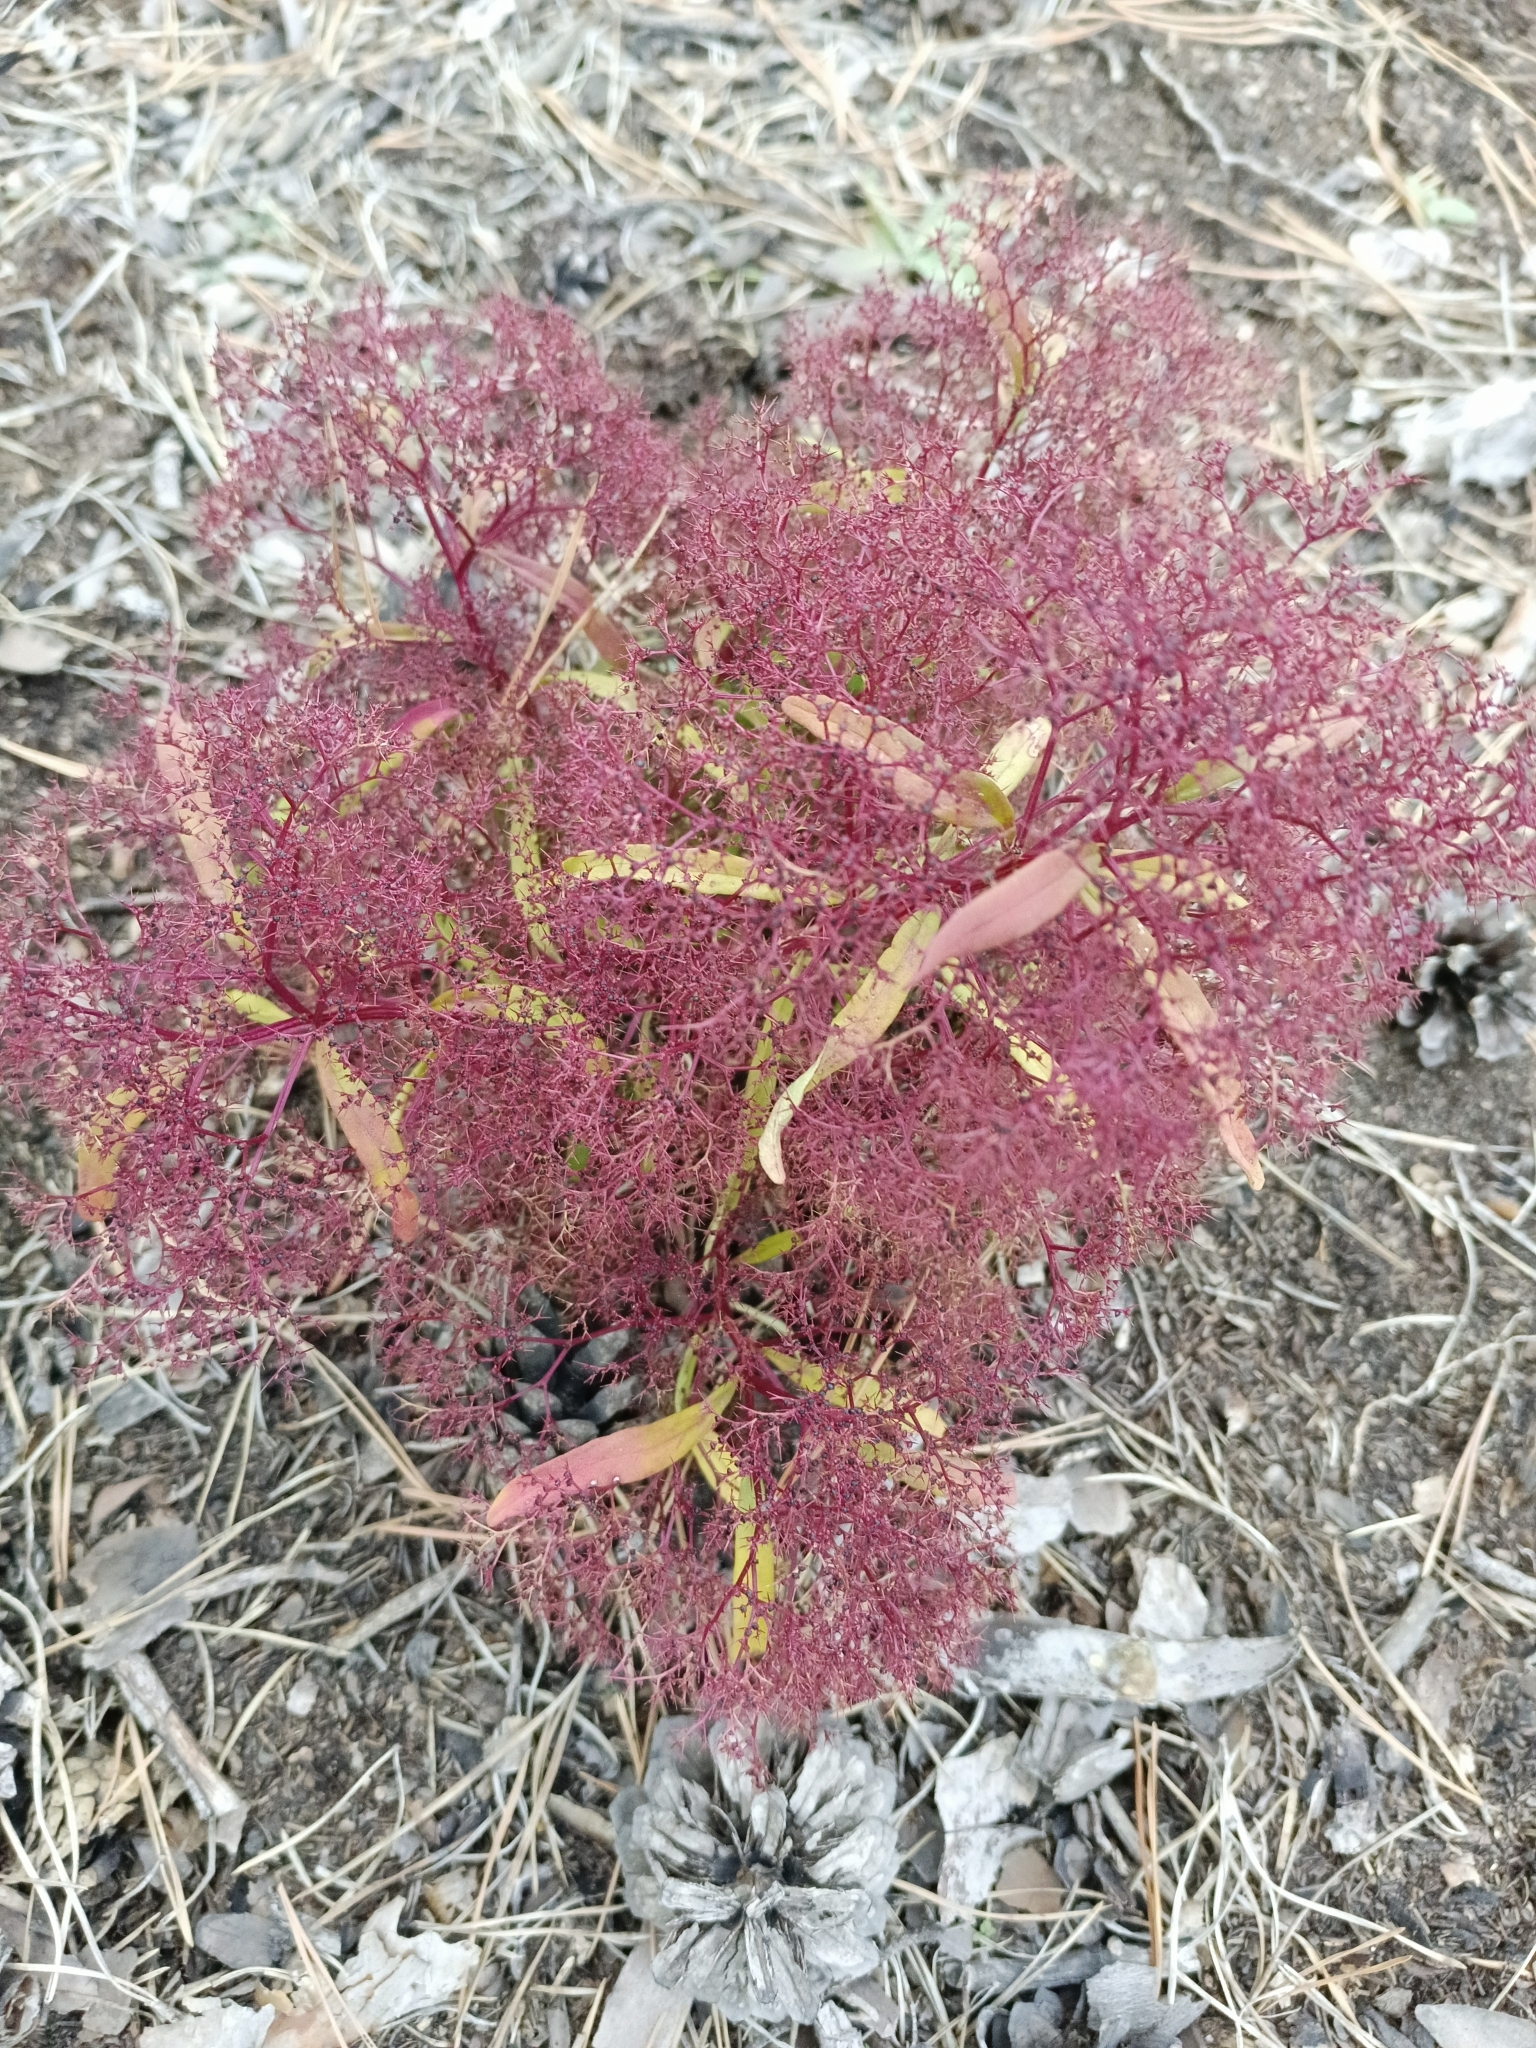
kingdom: Plantae
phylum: Tracheophyta
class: Magnoliopsida
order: Caryophyllales
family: Amaranthaceae
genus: Teloxys
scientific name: Teloxys aristata
